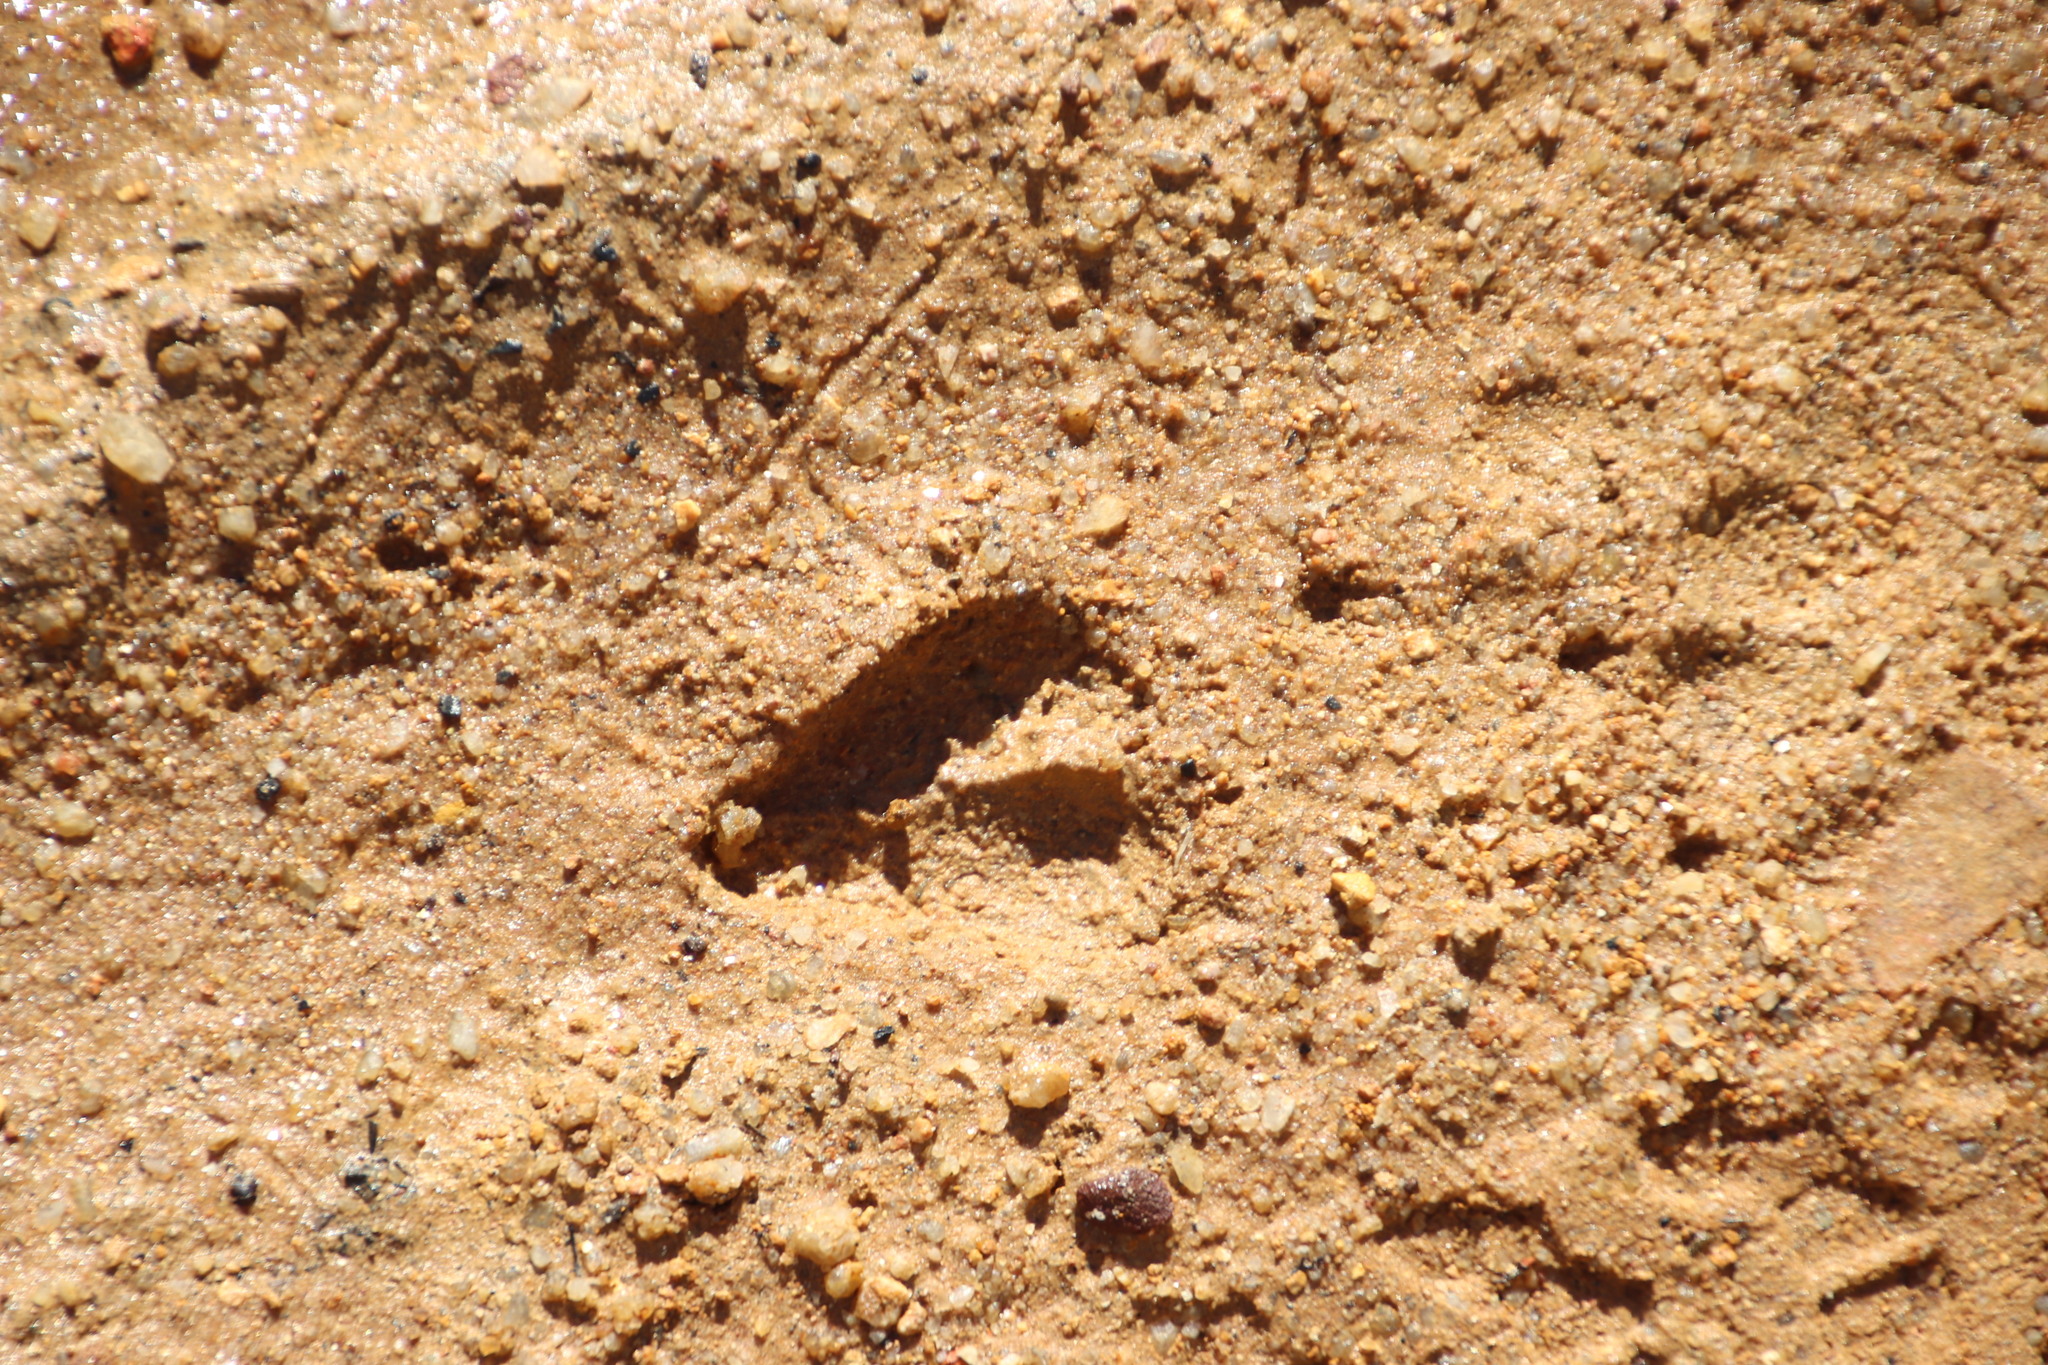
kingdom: Animalia
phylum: Chordata
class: Mammalia
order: Artiodactyla
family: Bovidae
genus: Raphicerus
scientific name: Raphicerus melanotis
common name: Cape grysbok
